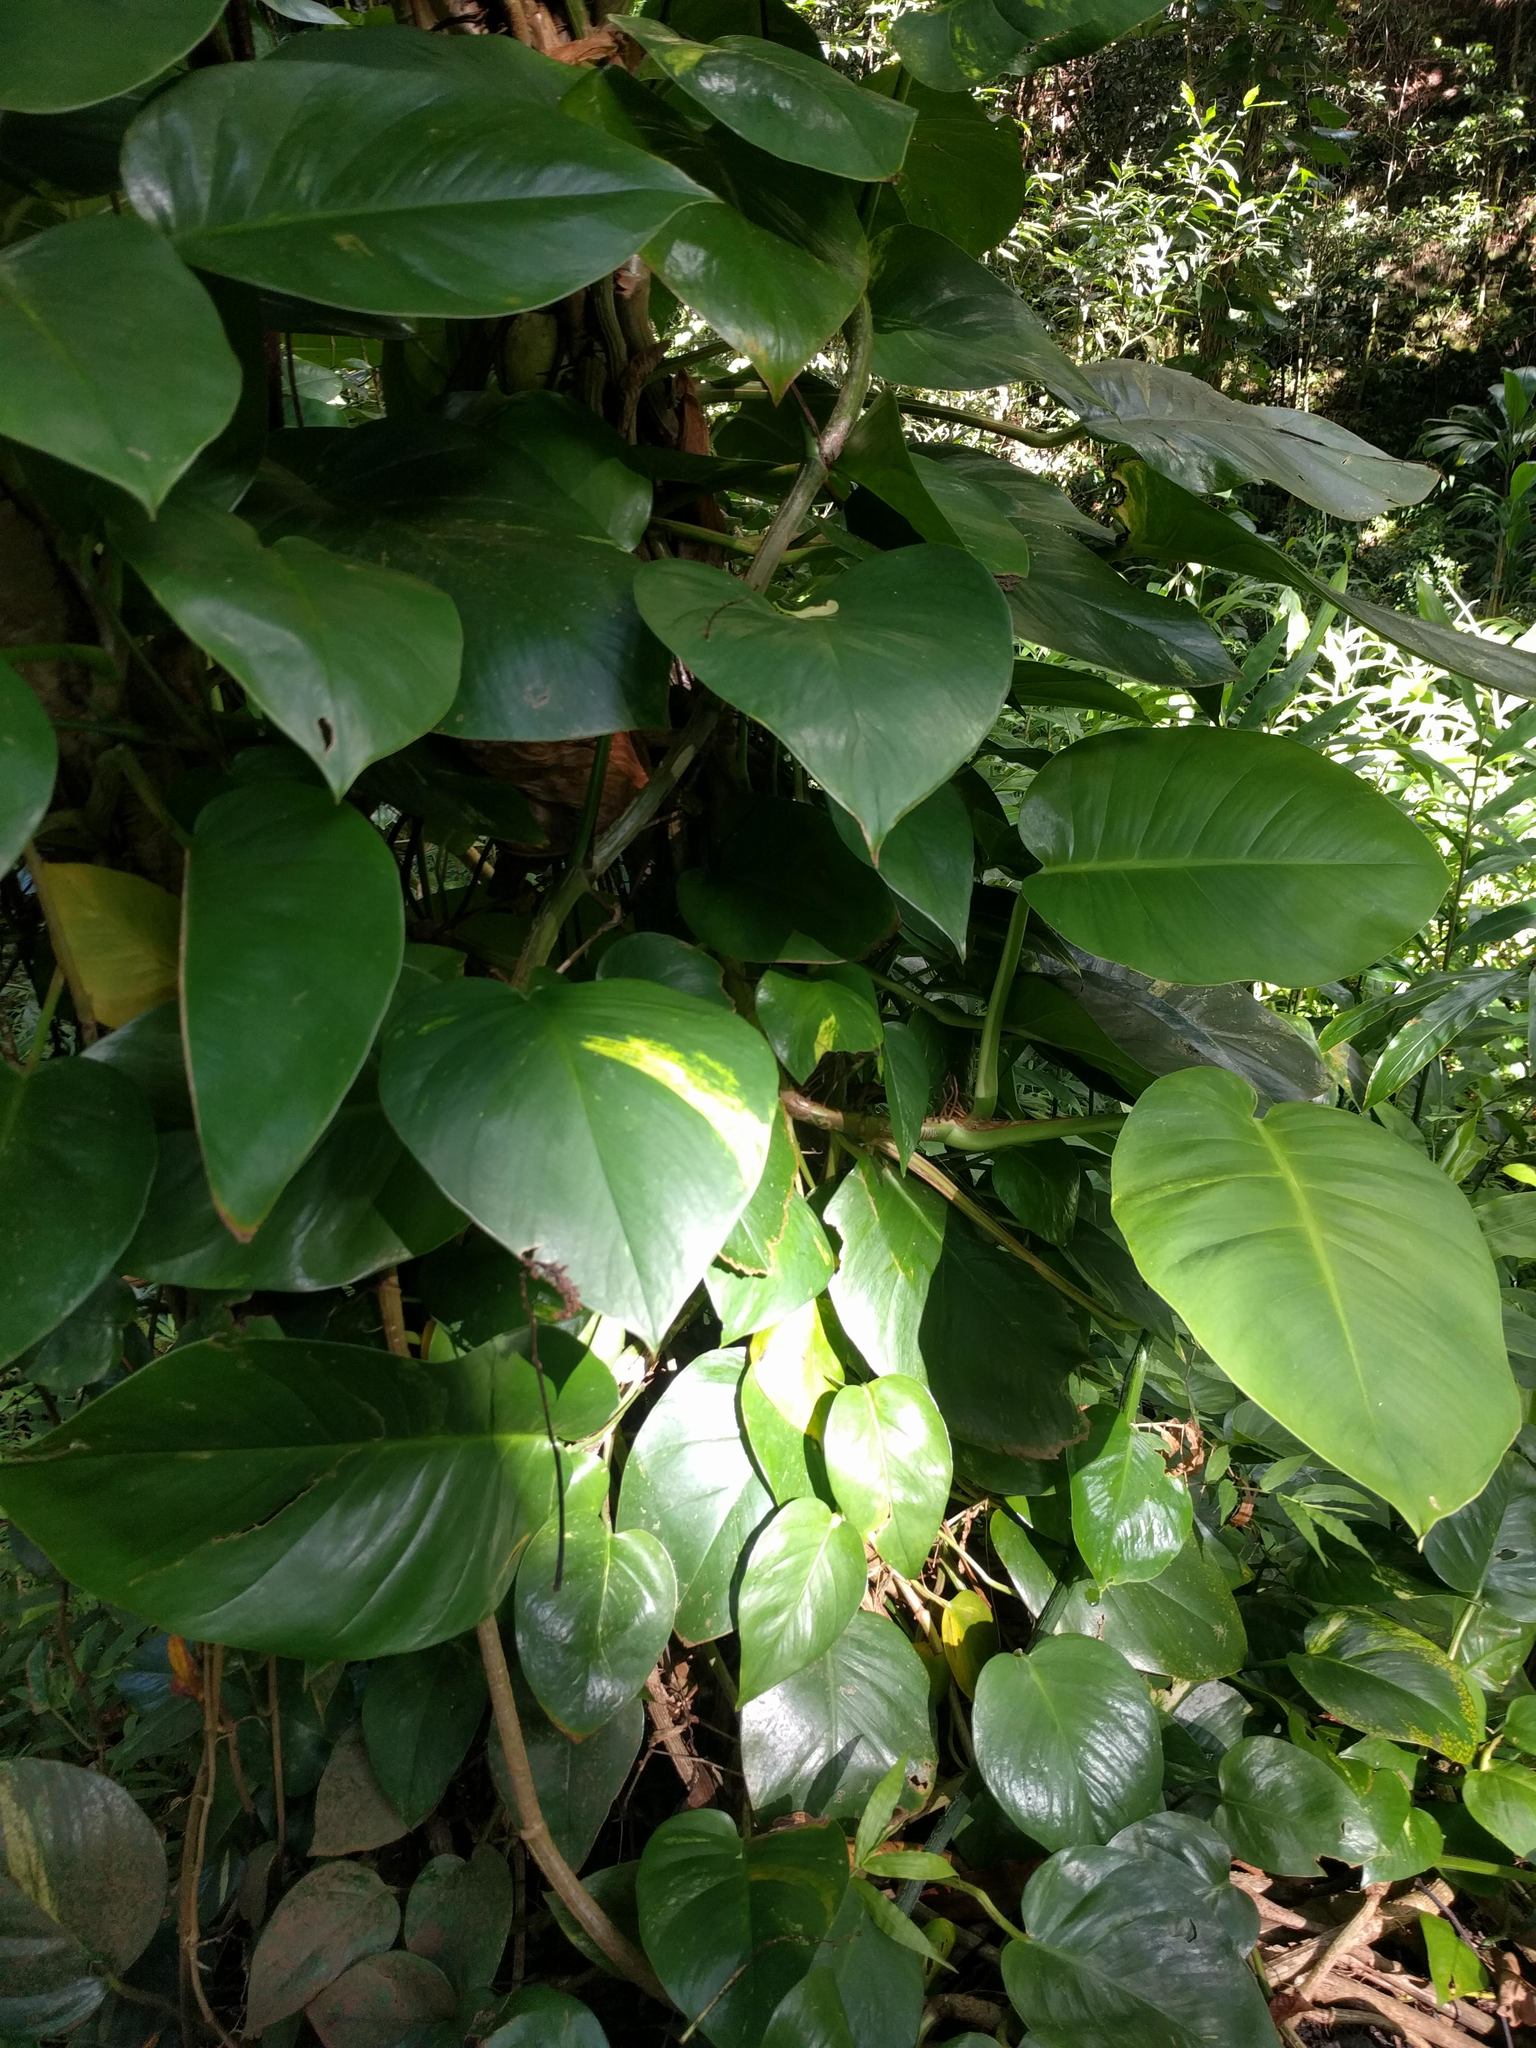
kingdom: Plantae
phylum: Tracheophyta
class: Liliopsida
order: Alismatales
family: Araceae
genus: Epipremnum
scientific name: Epipremnum aureum
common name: Golden hunter's-robe
